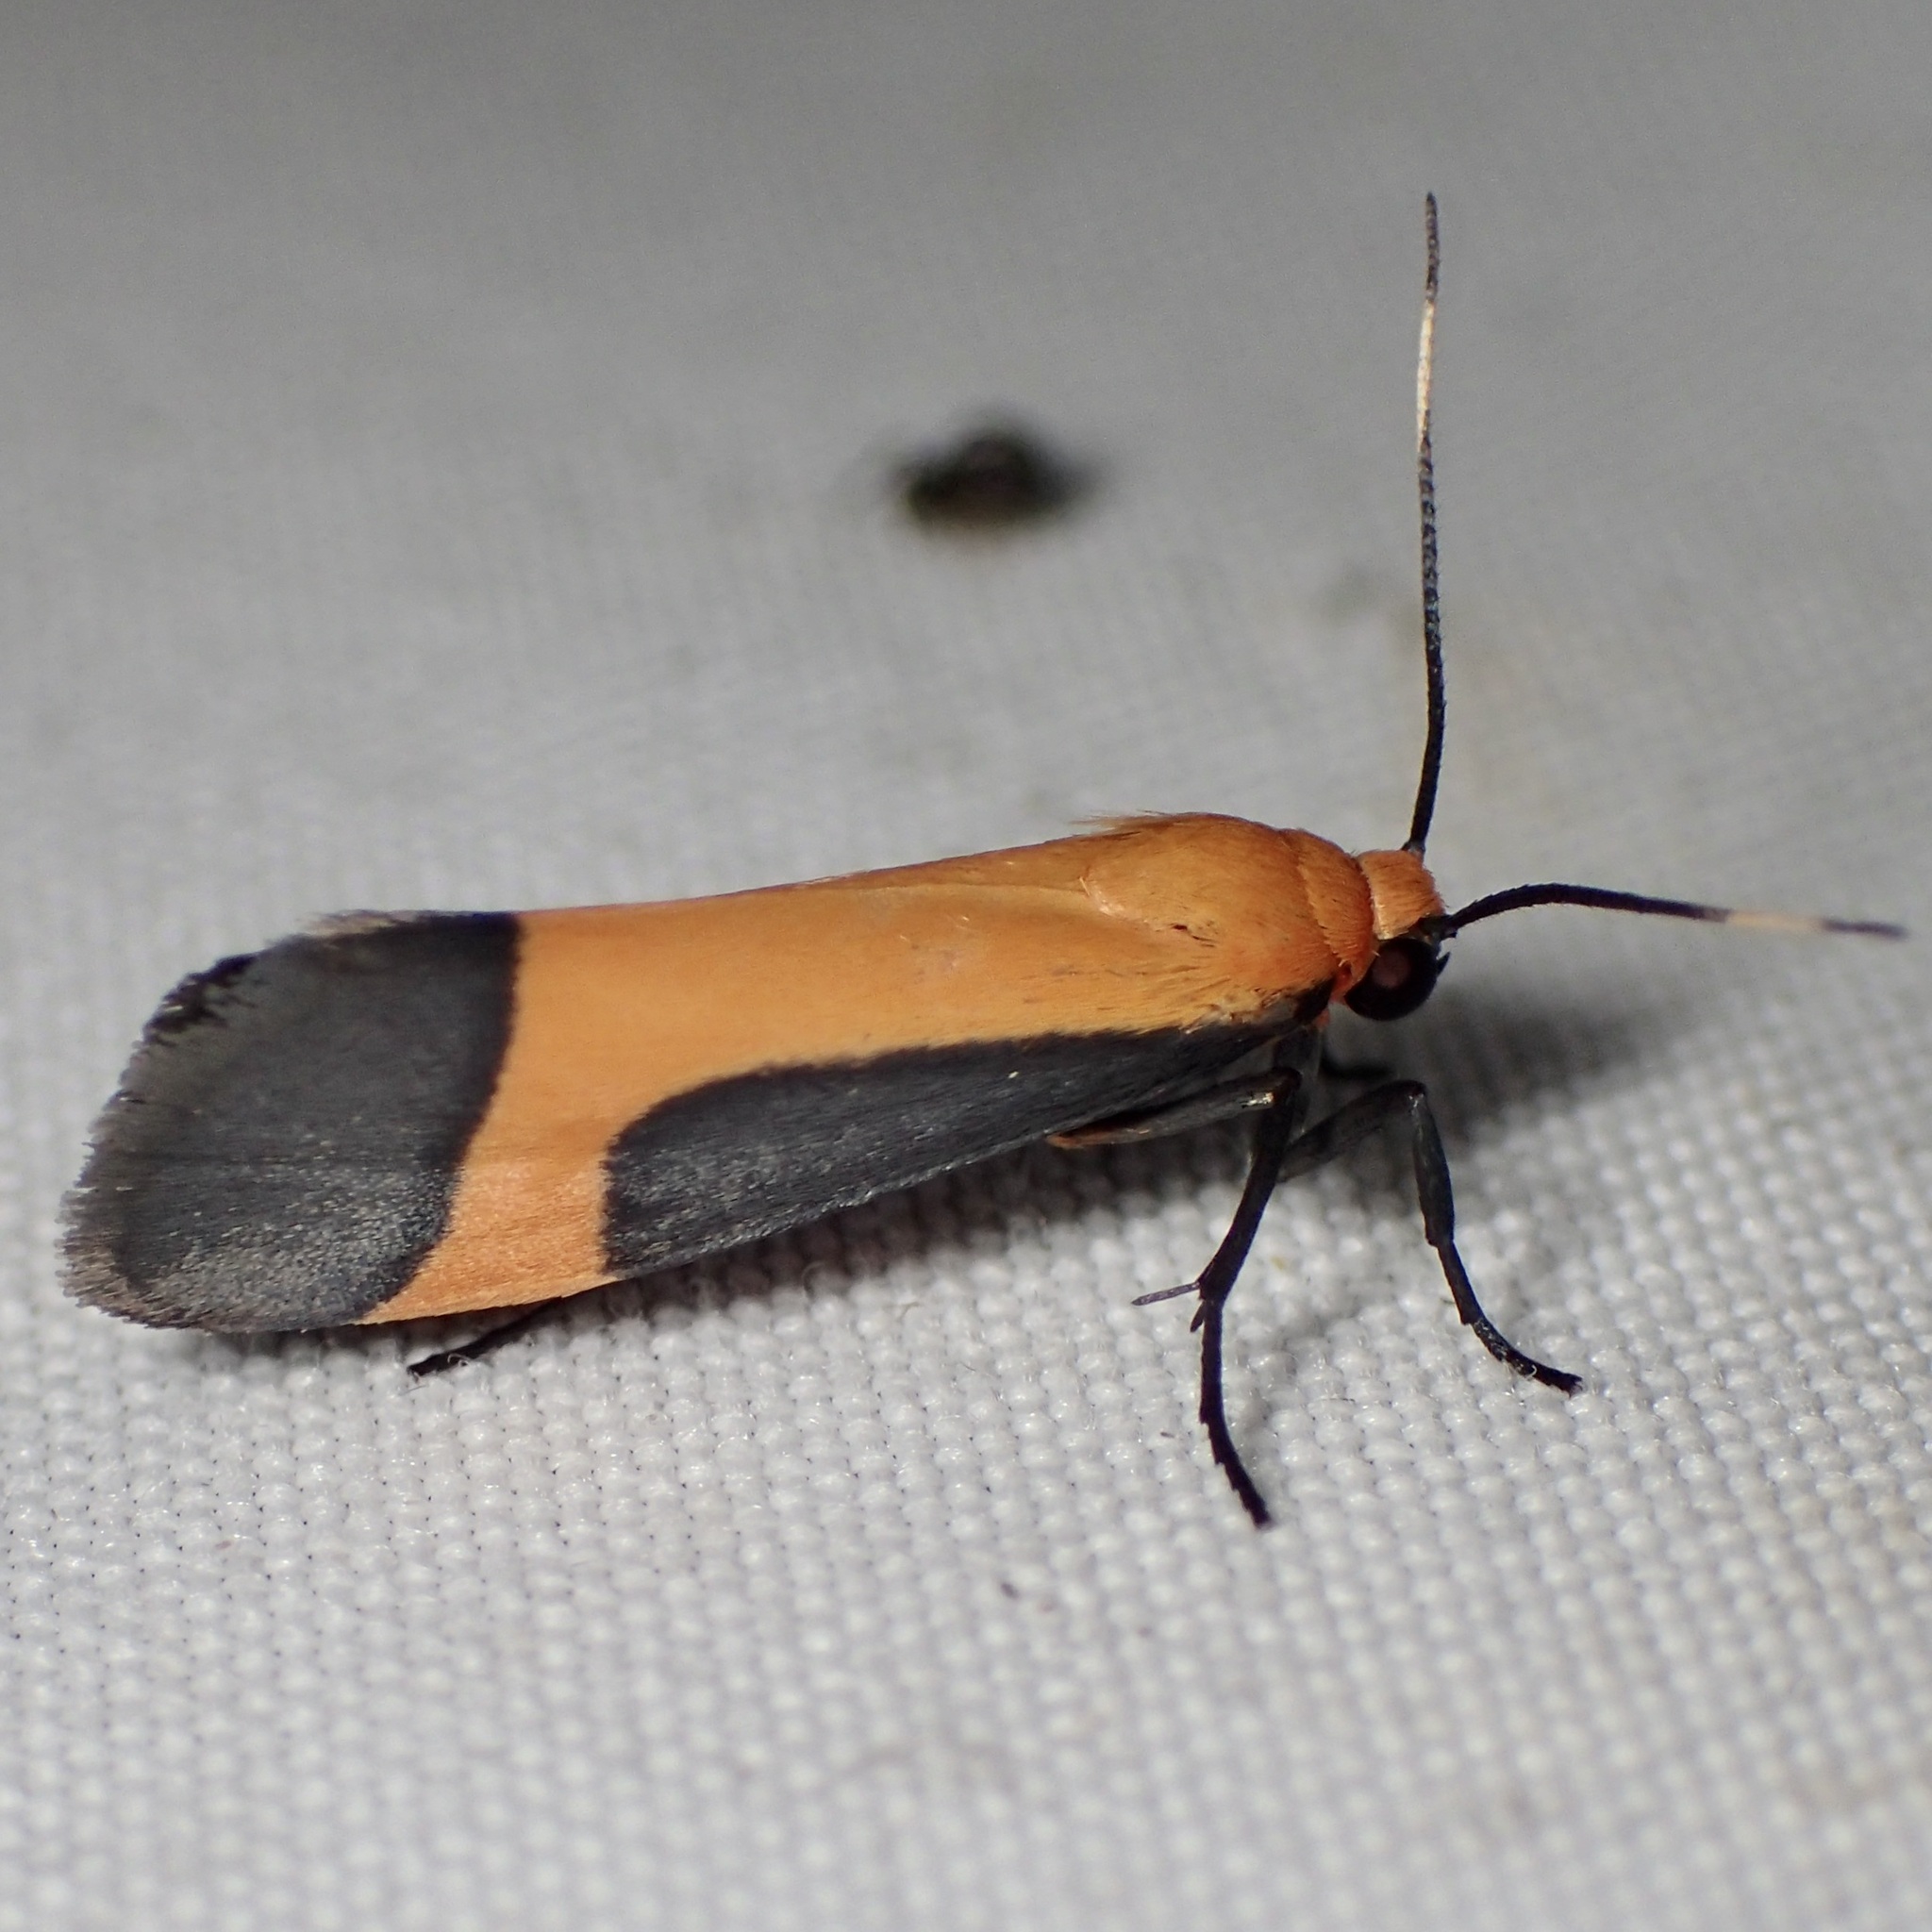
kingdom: Animalia
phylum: Arthropoda
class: Insecta
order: Lepidoptera
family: Erebidae
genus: Cisthene
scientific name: Cisthene angelus
